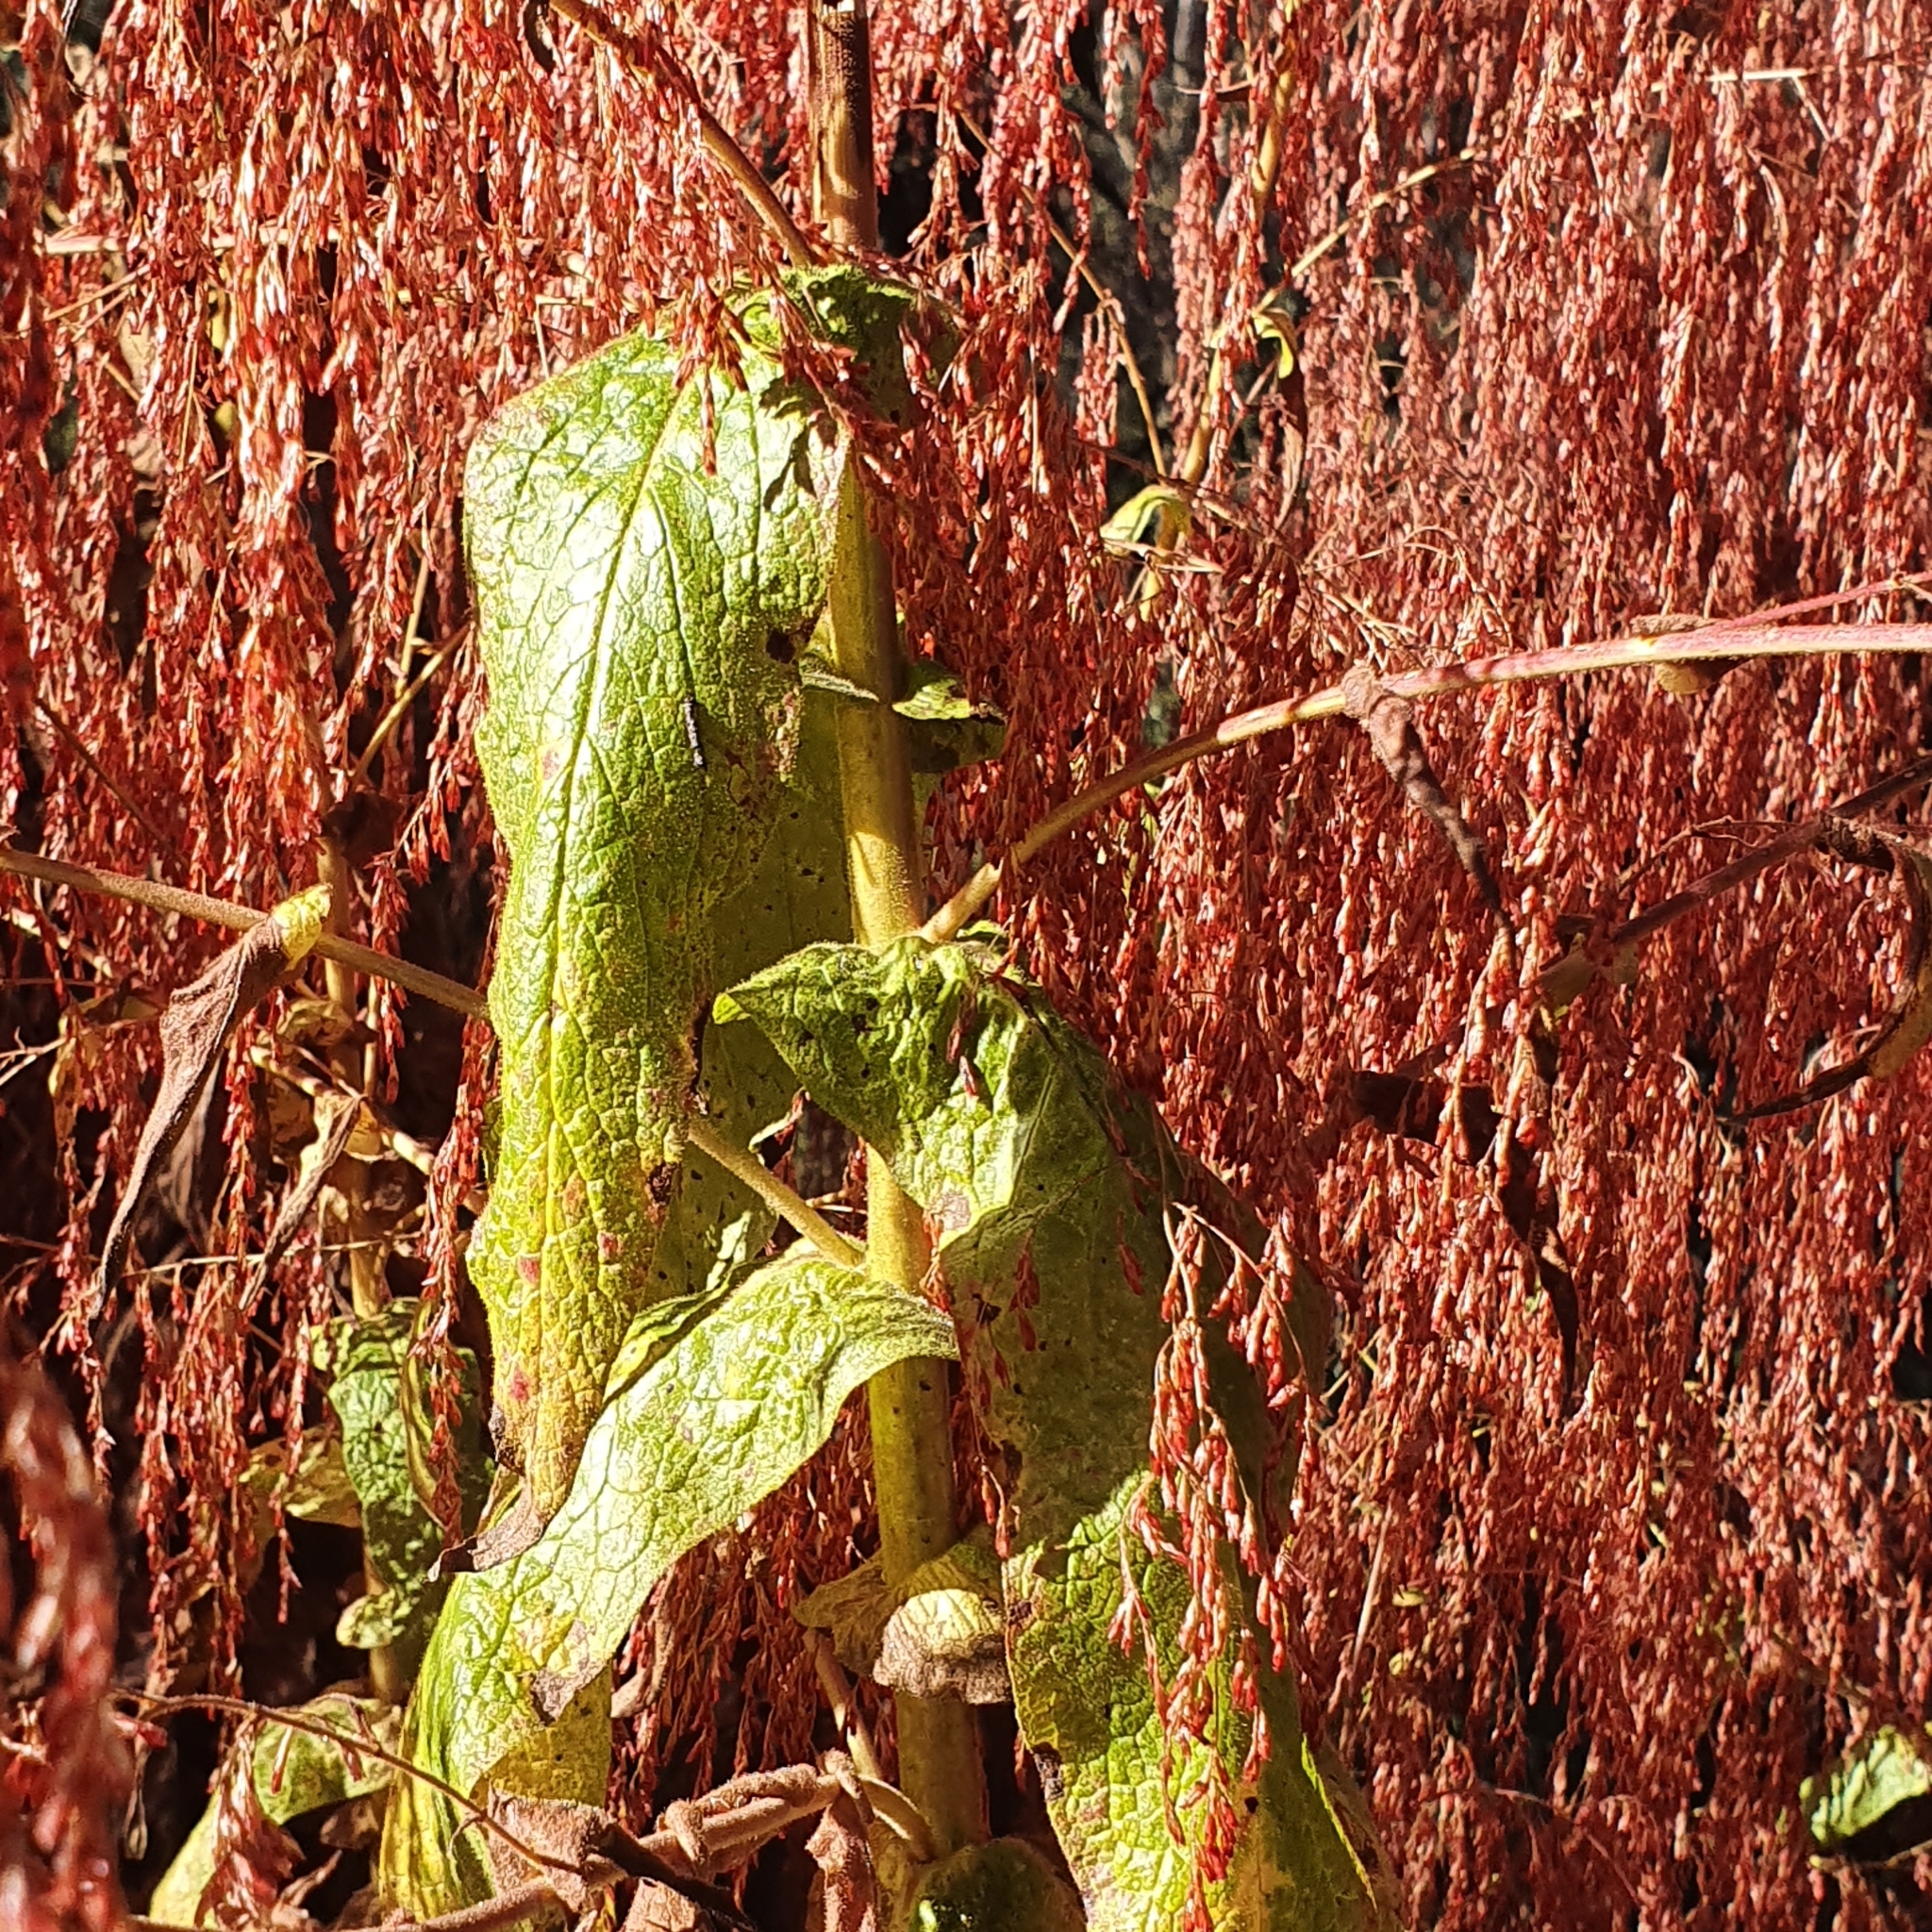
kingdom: Plantae
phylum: Tracheophyta
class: Magnoliopsida
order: Asterales
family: Asteraceae
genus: Calomeria
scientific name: Calomeria amaranthoides
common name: Incenseplant
